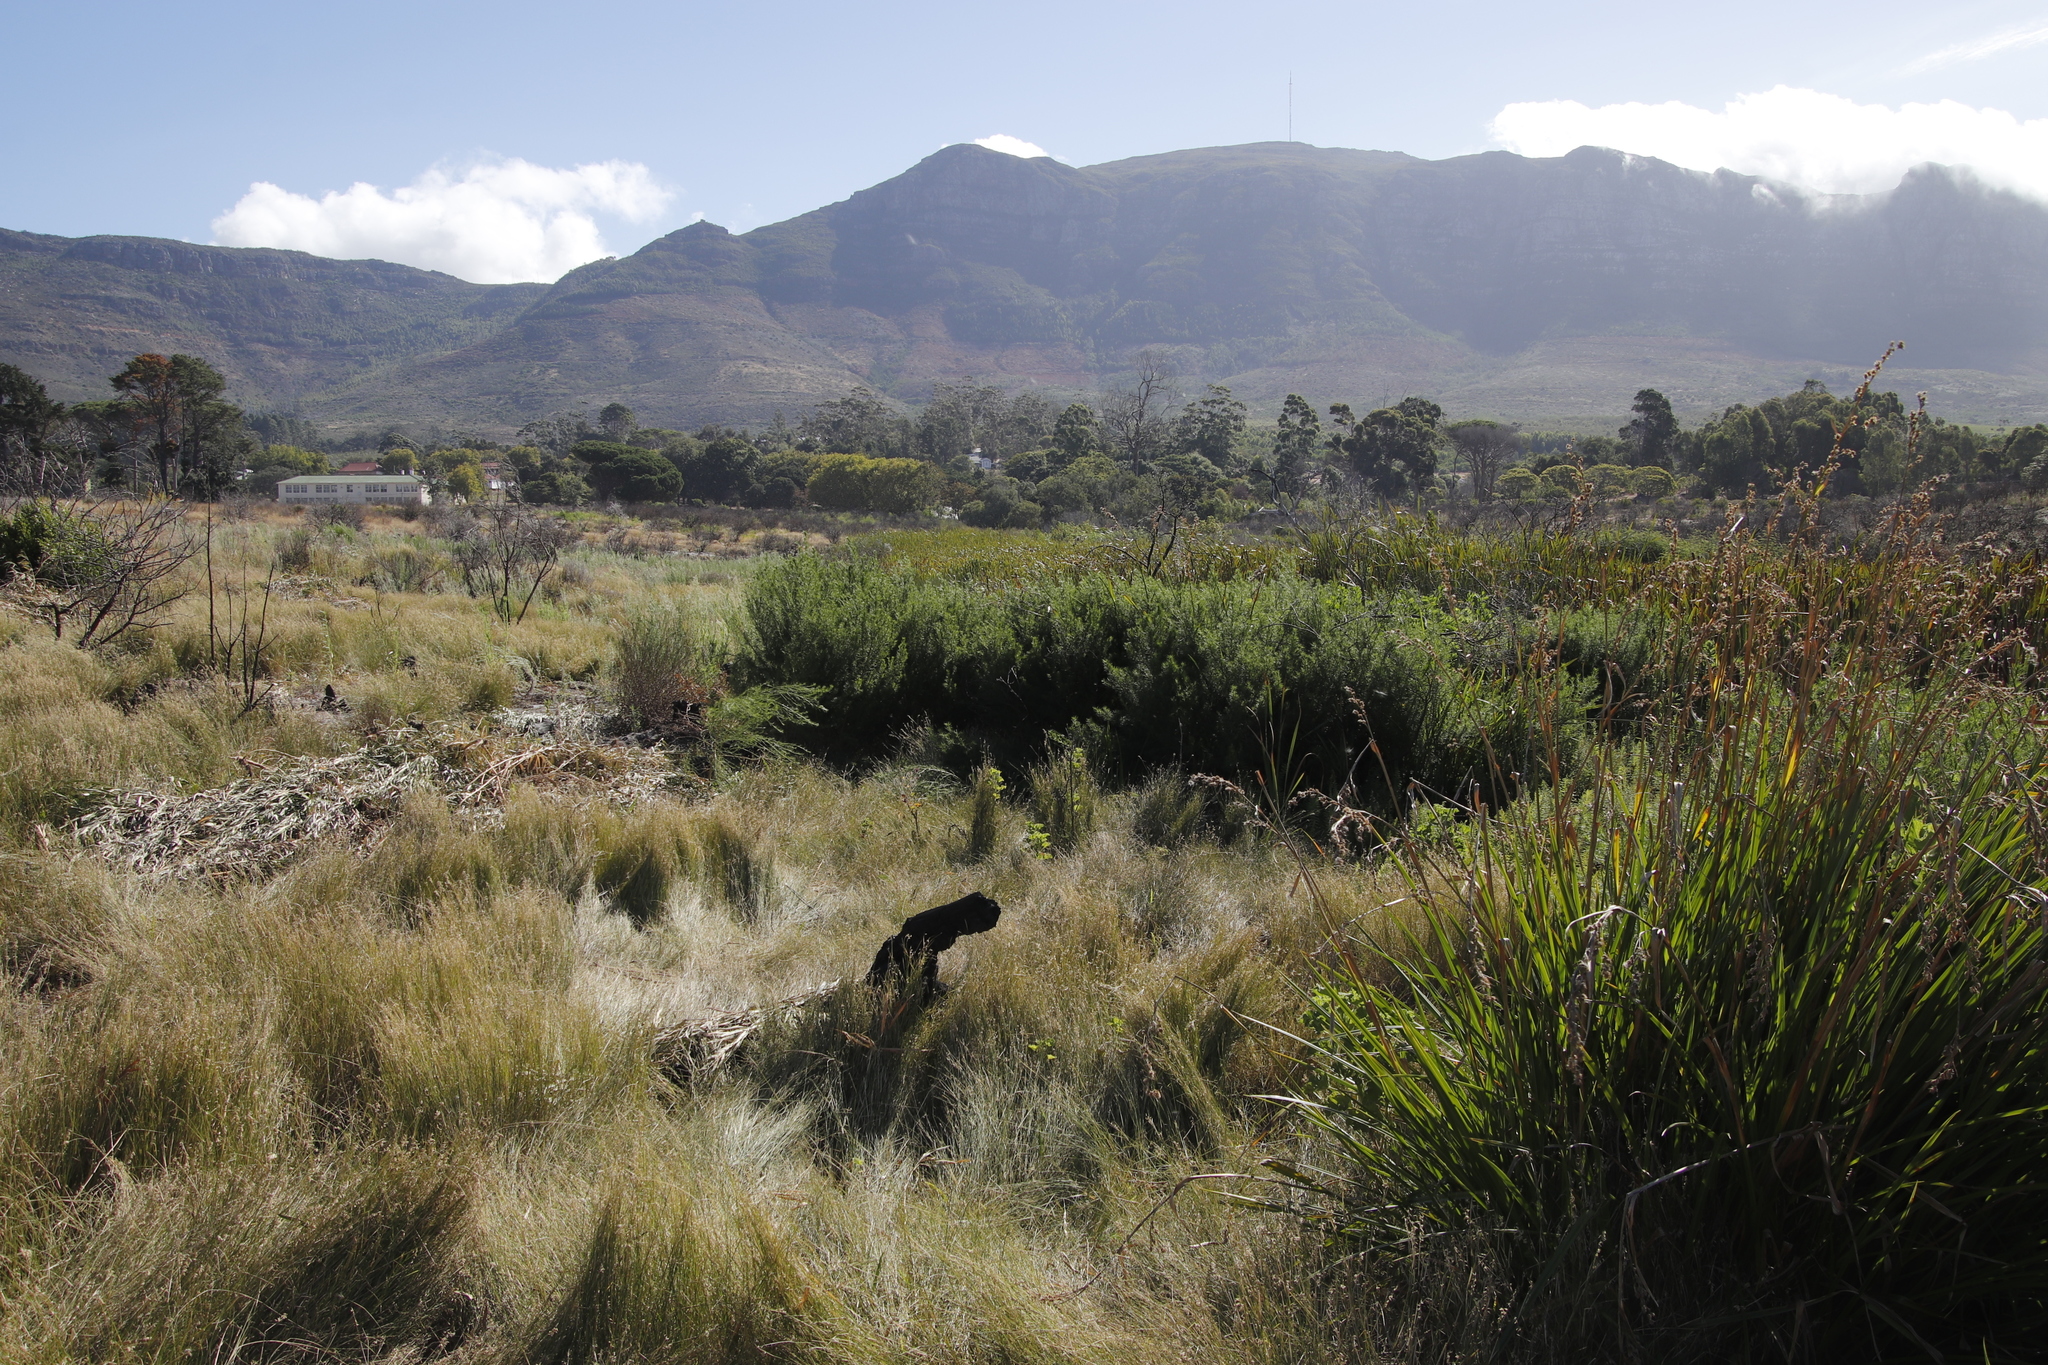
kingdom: Plantae
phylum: Tracheophyta
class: Liliopsida
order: Poales
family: Cyperaceae
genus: Carpha
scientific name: Carpha glomerata
